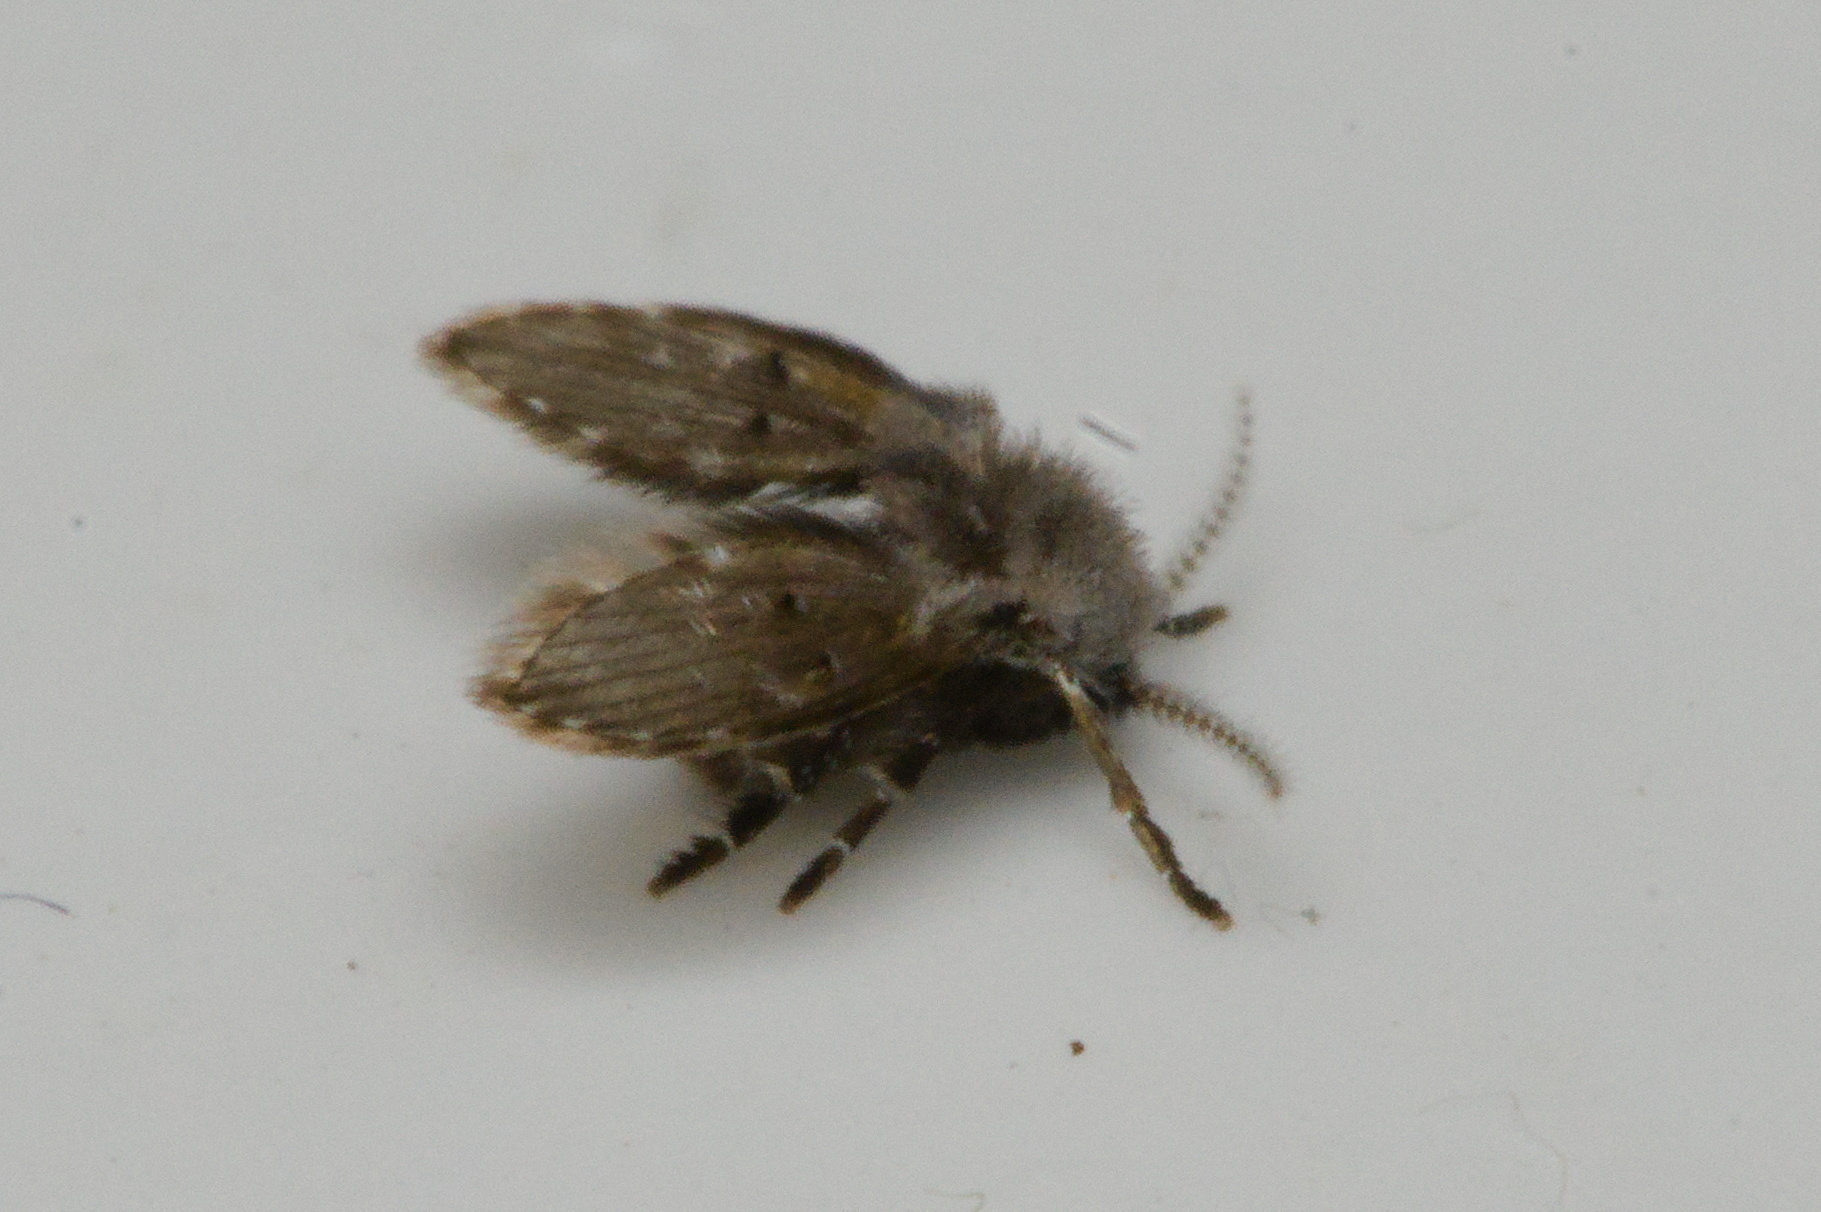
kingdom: Animalia
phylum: Arthropoda
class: Insecta
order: Diptera
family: Psychodidae
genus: Clogmia
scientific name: Clogmia albipunctatus
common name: White-spotted moth fly
